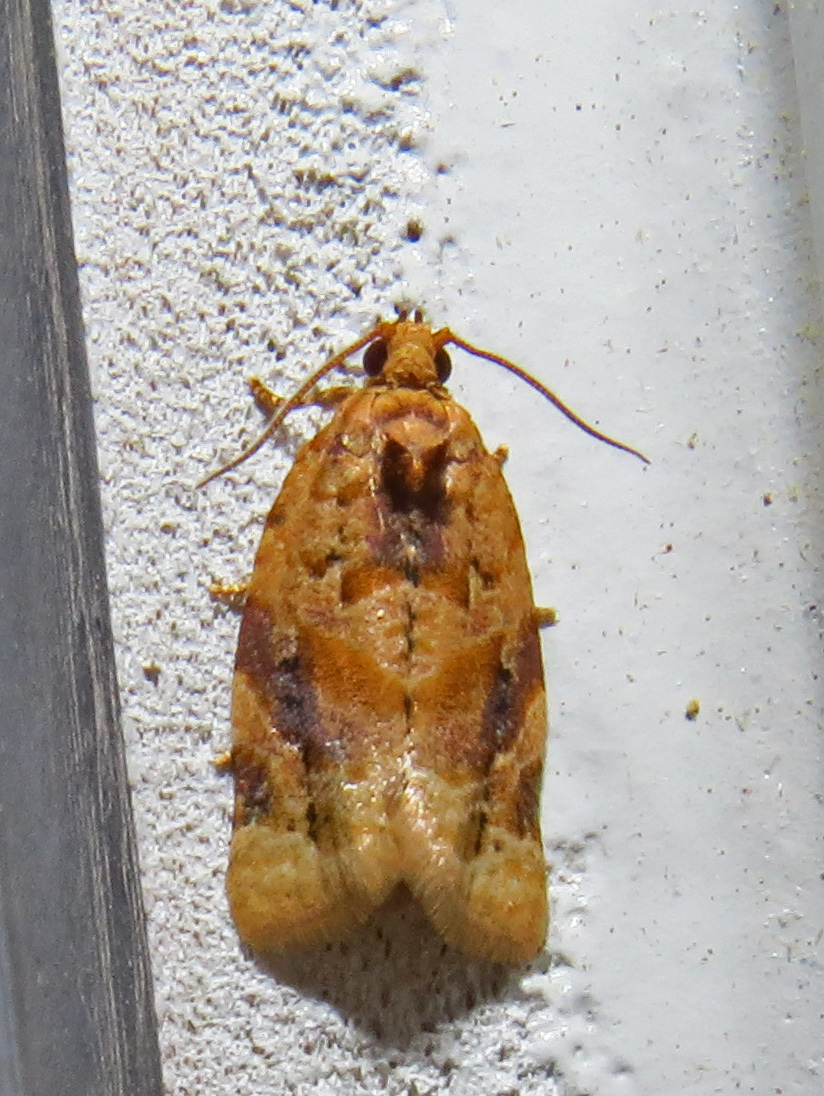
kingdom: Animalia
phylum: Arthropoda
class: Insecta
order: Lepidoptera
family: Tortricidae
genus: Argyrotaenia
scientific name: Argyrotaenia velutinana
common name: Red-banded leafroller moth
